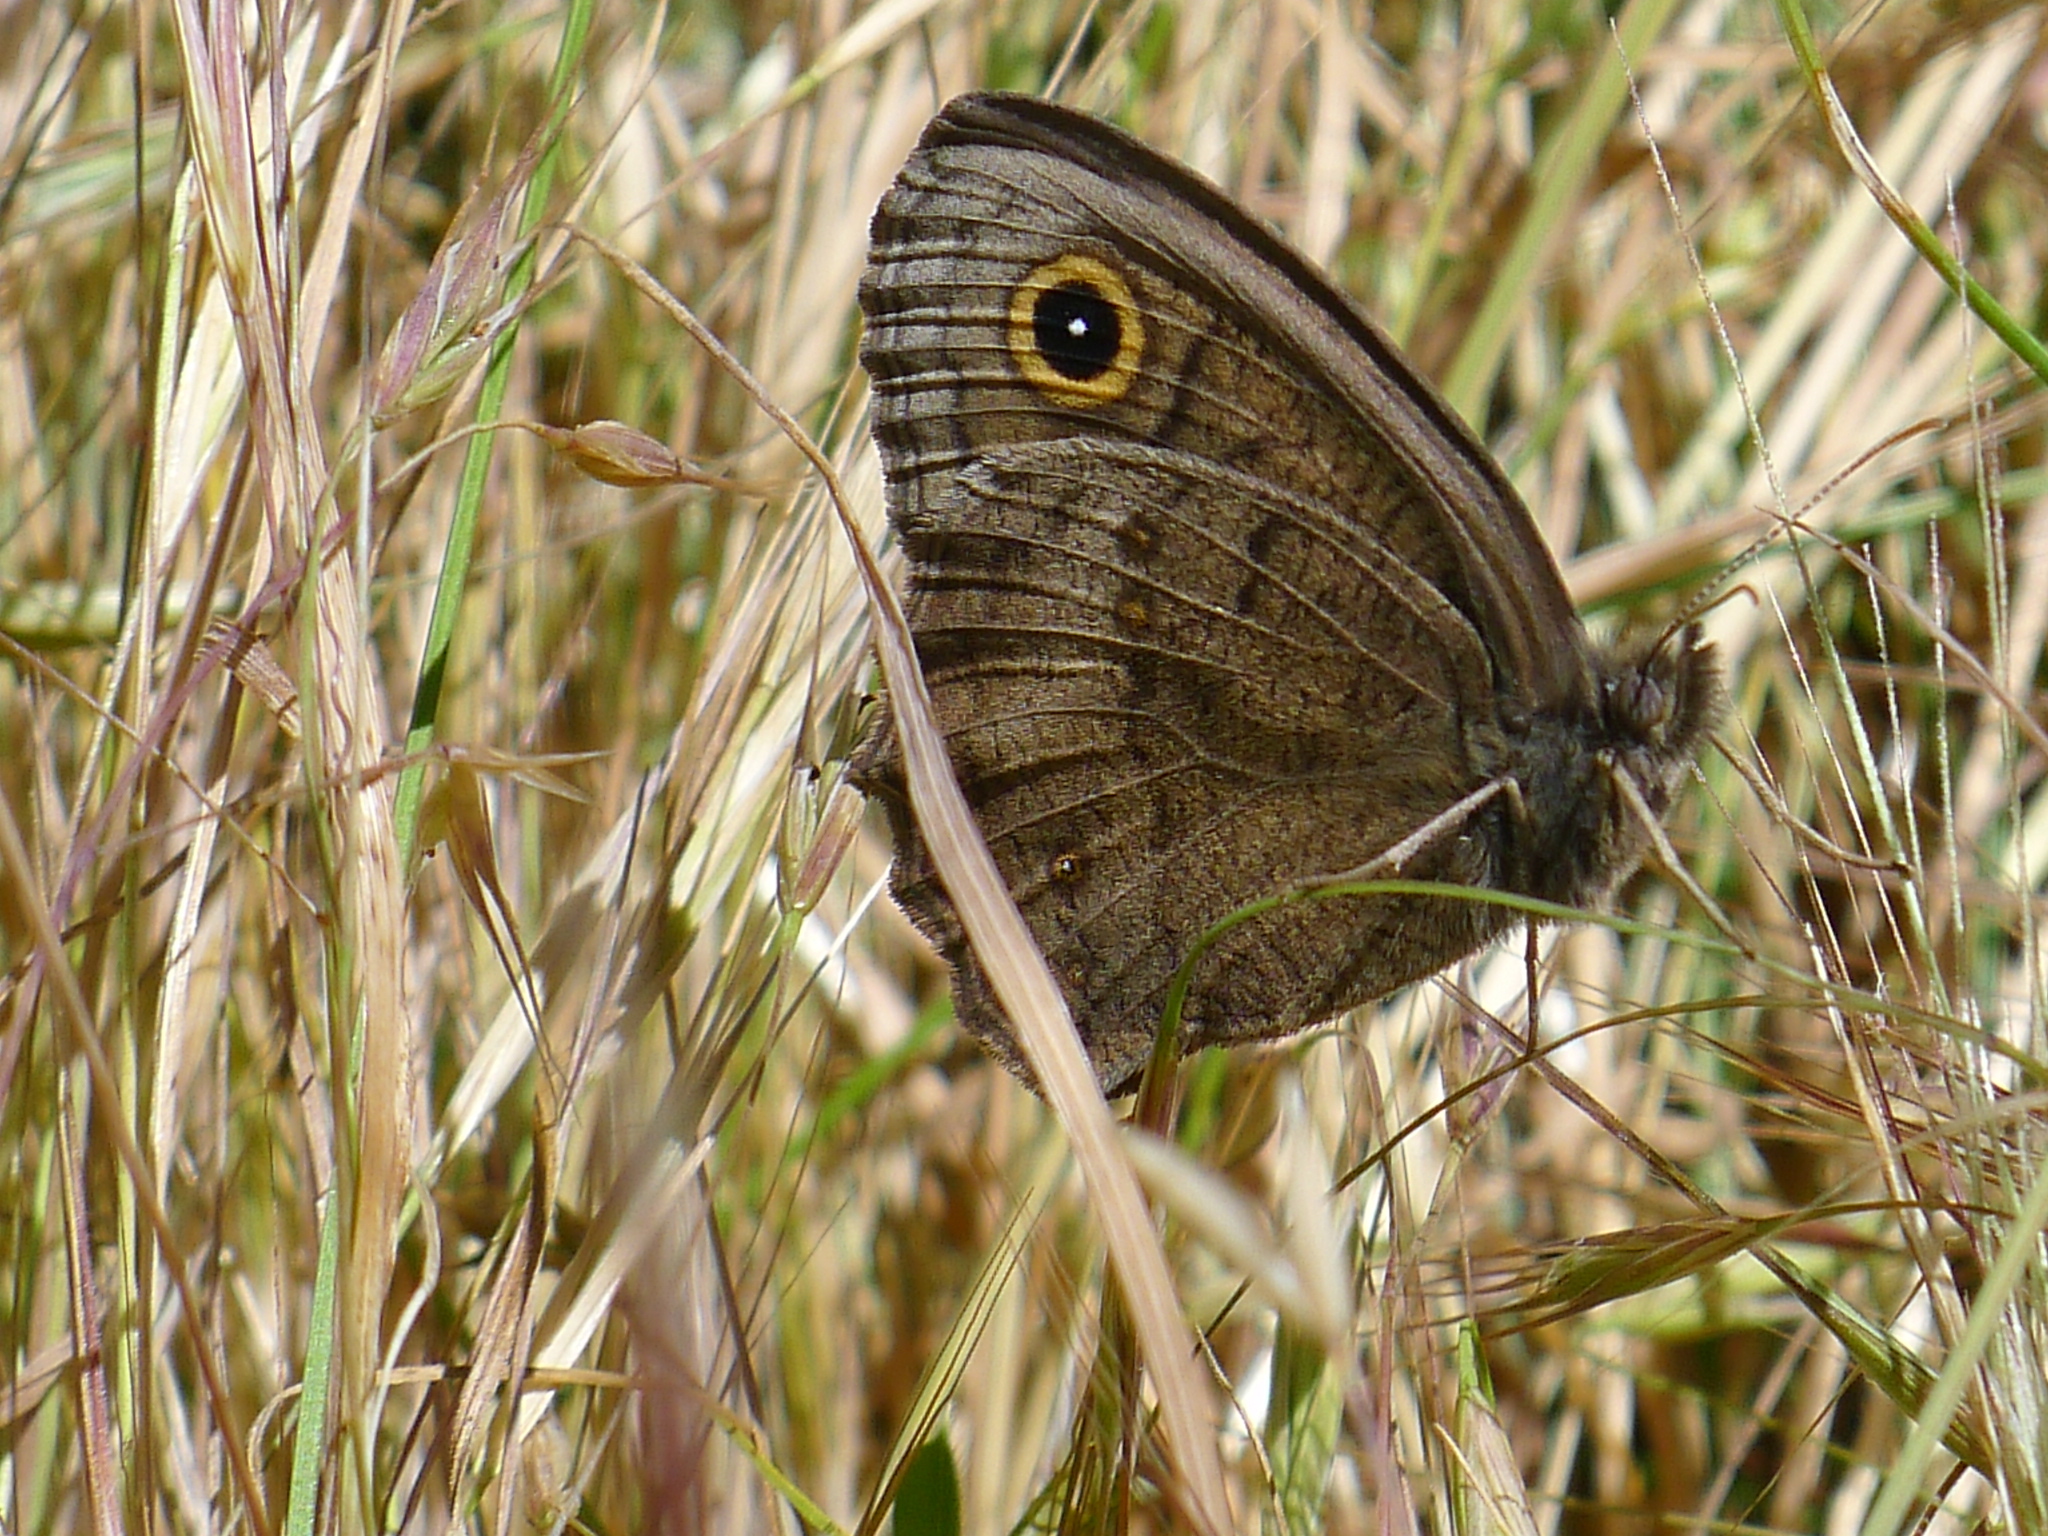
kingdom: Animalia
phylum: Arthropoda
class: Insecta
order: Lepidoptera
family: Nymphalidae
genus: Cercyonis
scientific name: Cercyonis pegala
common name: Common wood-nymph
